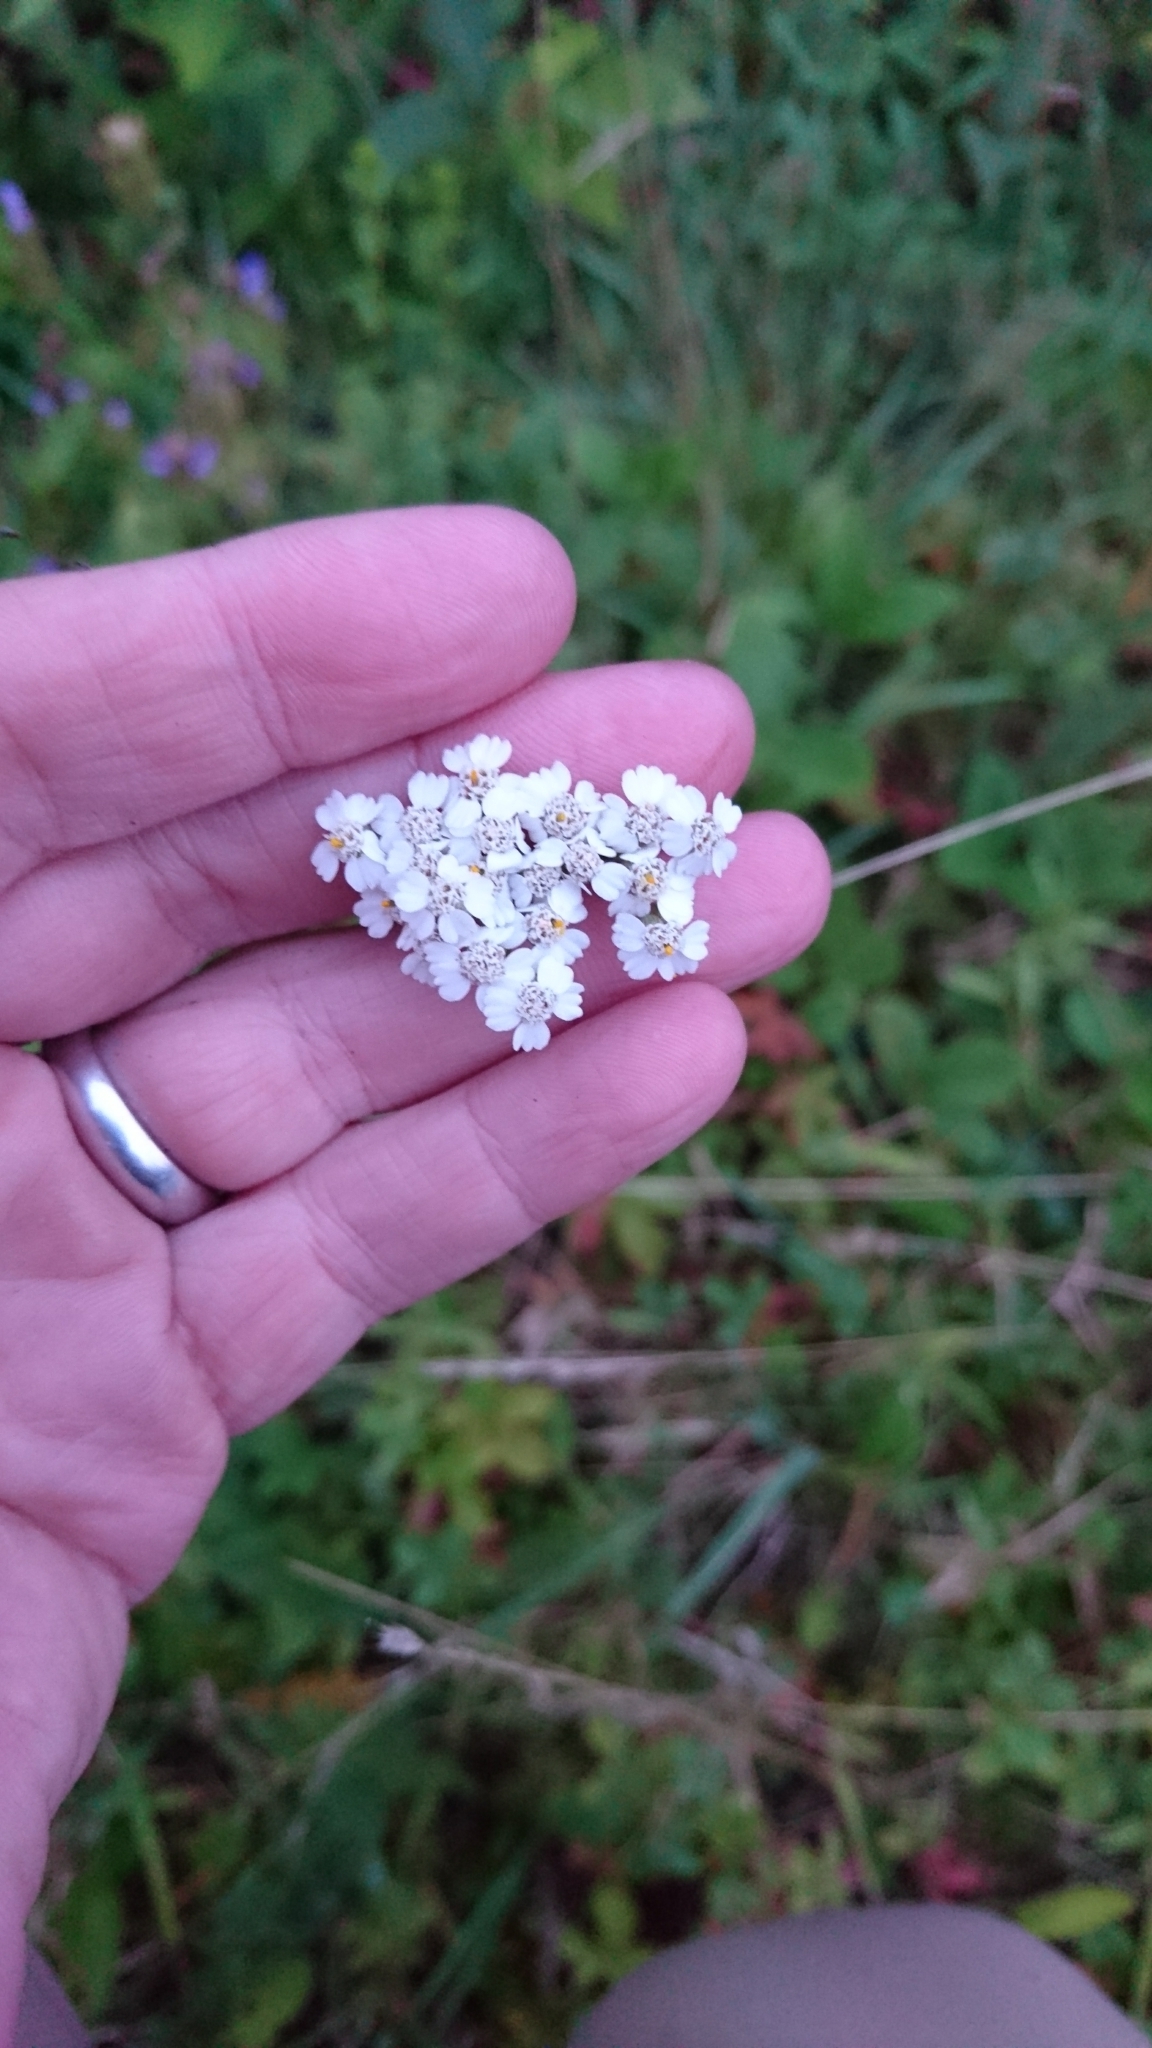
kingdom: Plantae
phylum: Tracheophyta
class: Magnoliopsida
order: Asterales
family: Asteraceae
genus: Achillea
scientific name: Achillea millefolium
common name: Yarrow
